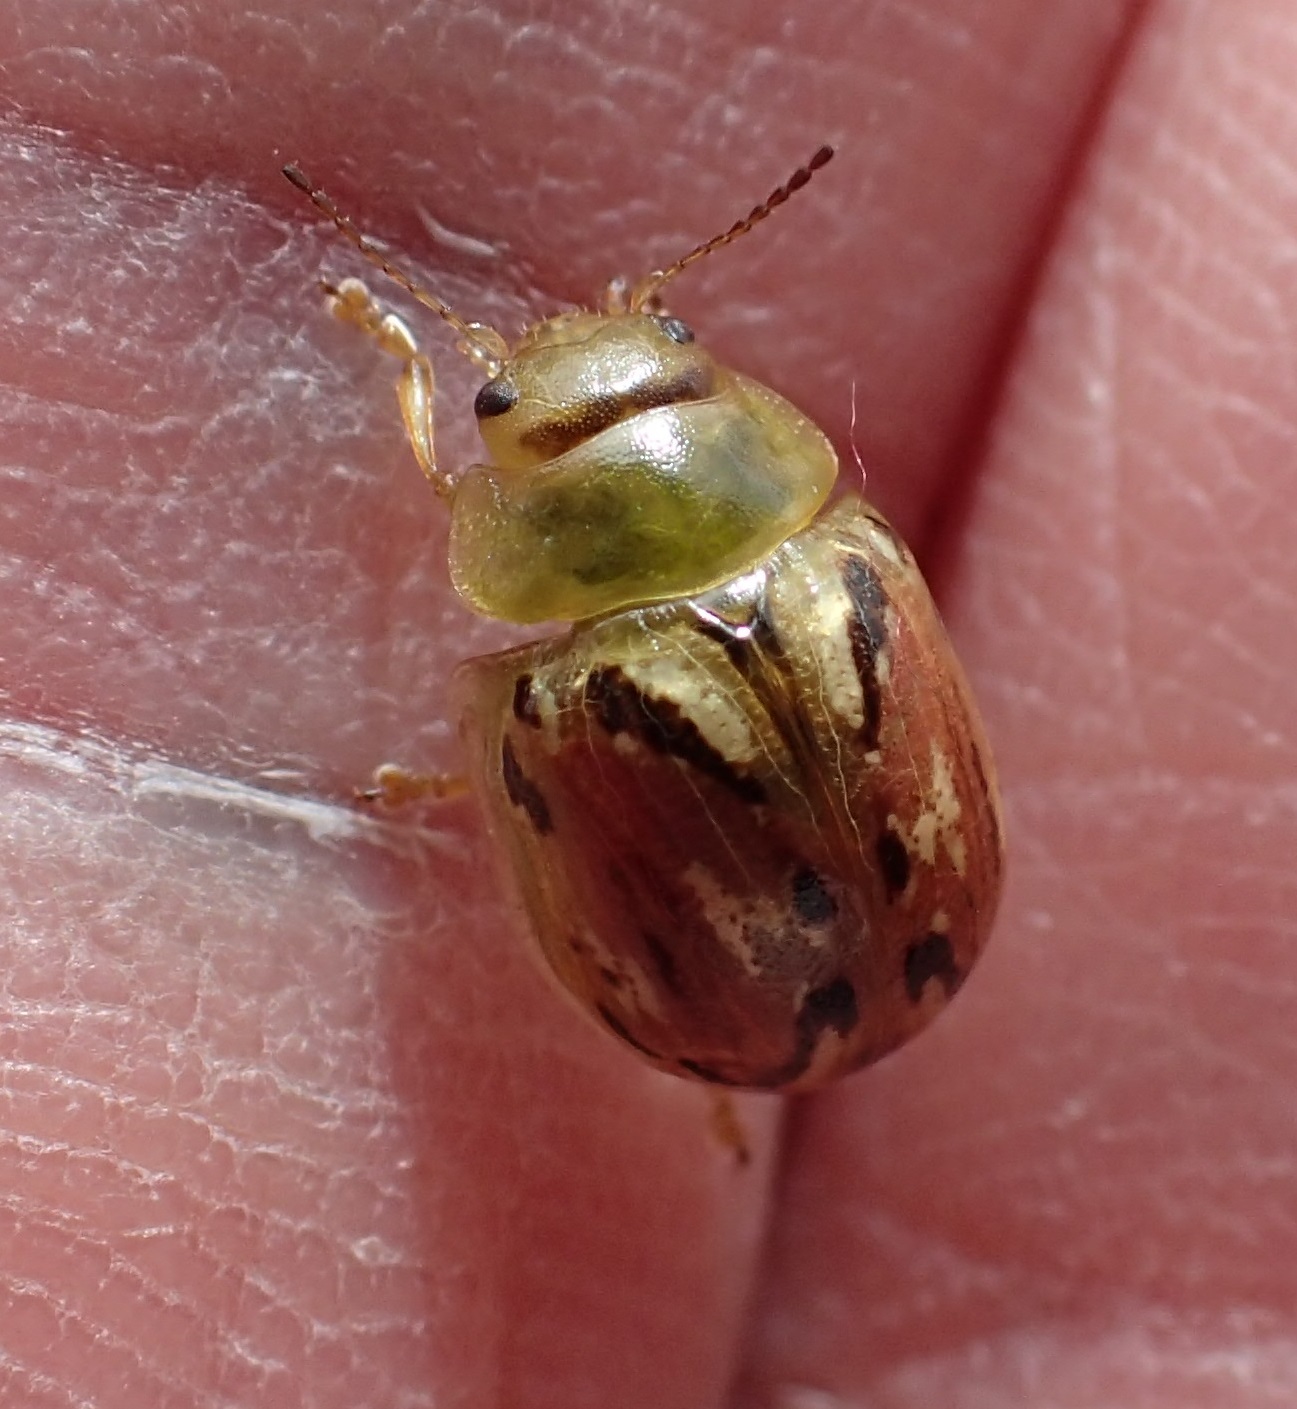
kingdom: Animalia
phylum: Arthropoda
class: Insecta
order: Coleoptera
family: Chrysomelidae
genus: Paropsisterna
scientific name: Paropsisterna
